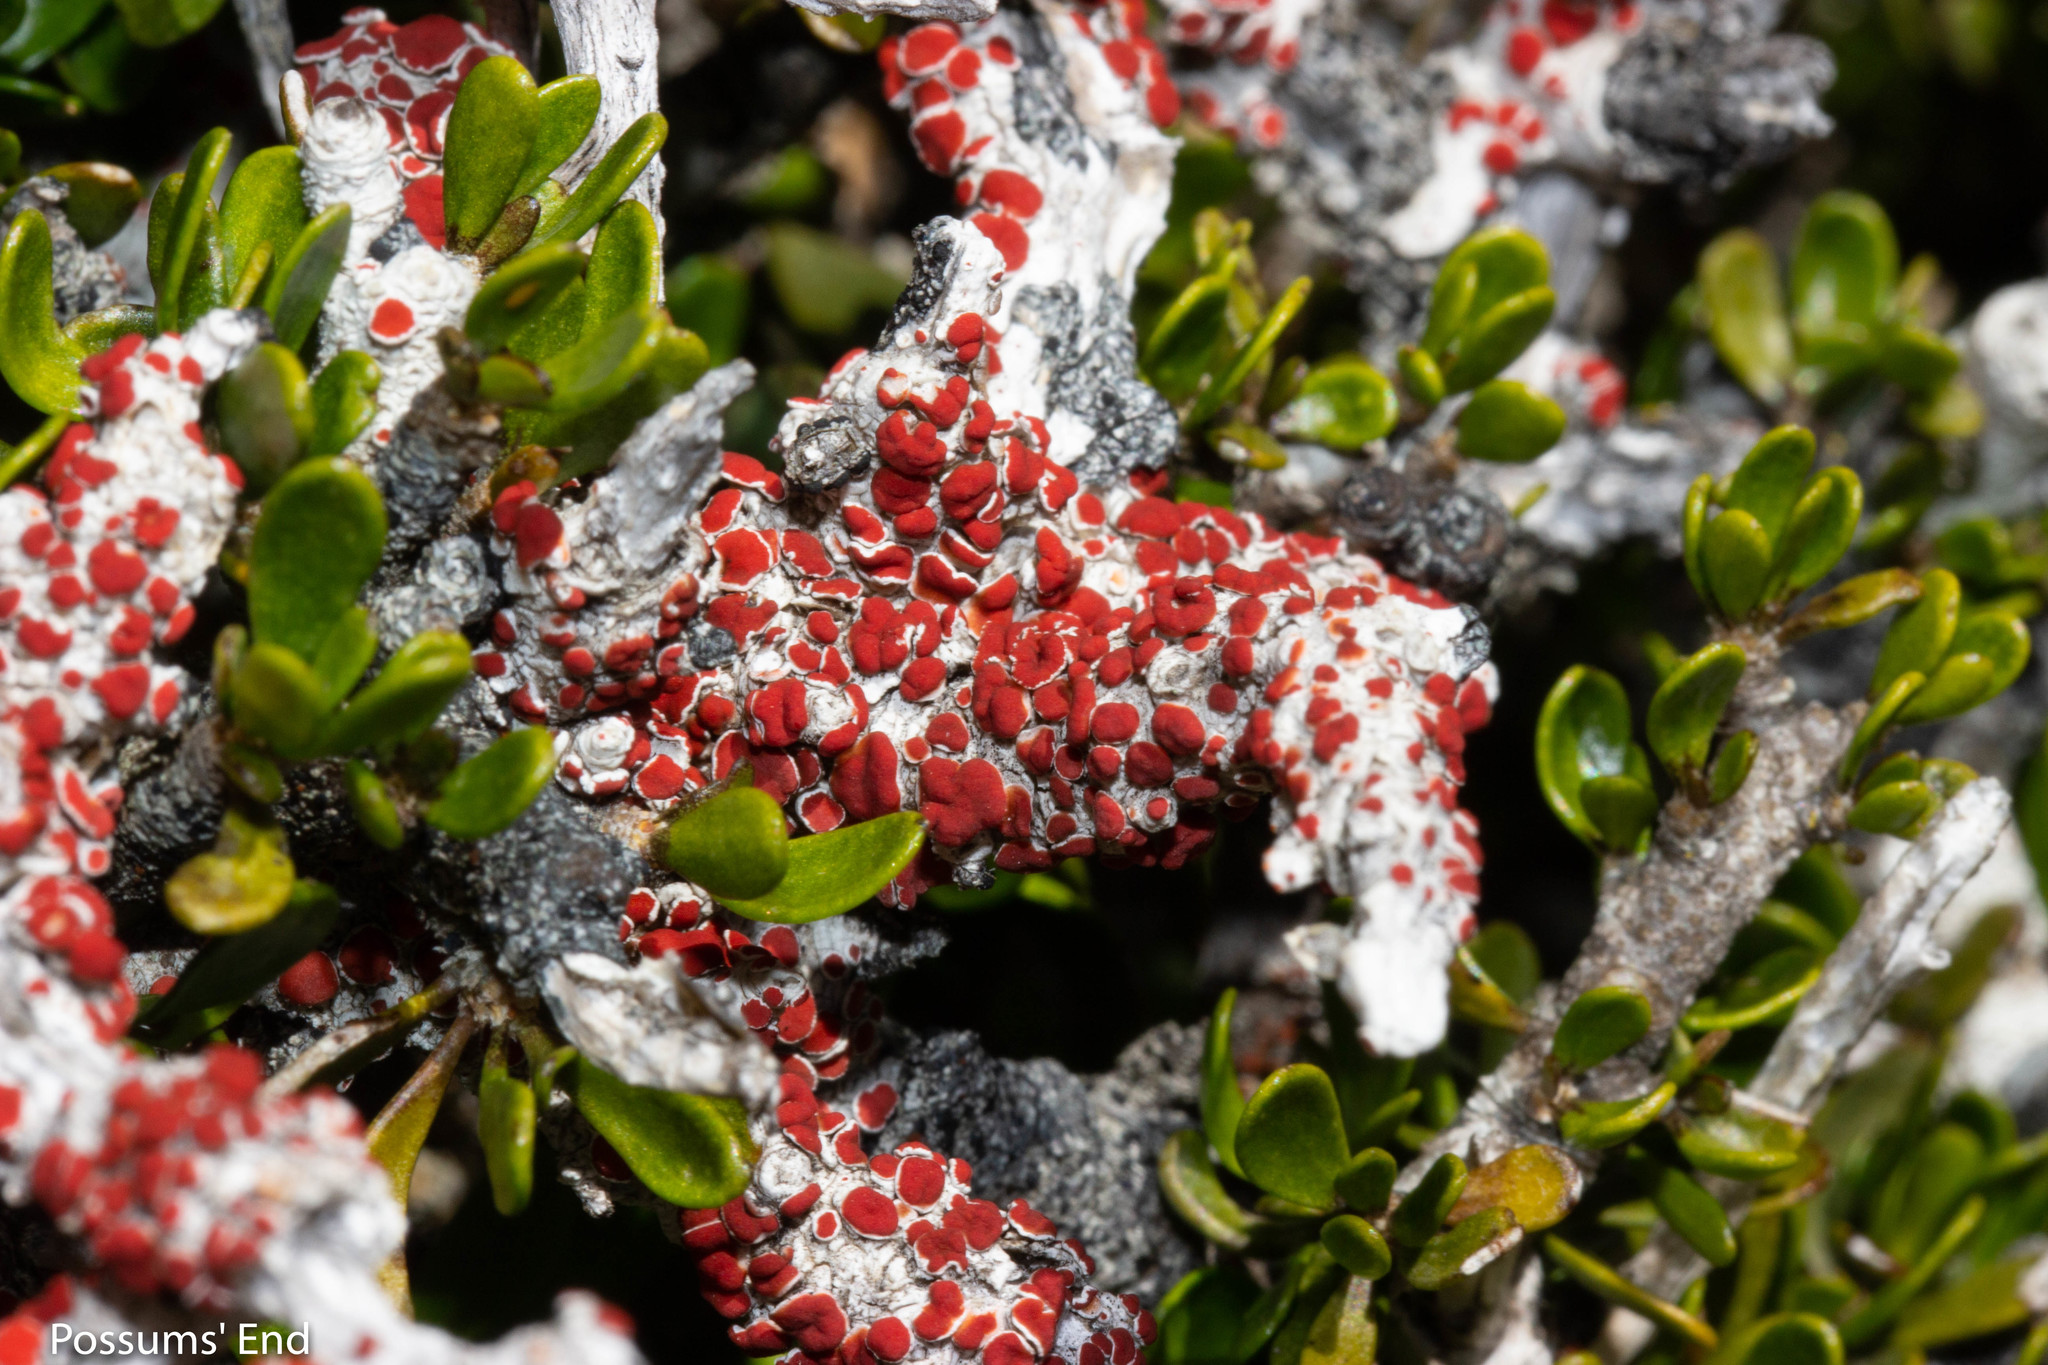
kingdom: Fungi
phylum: Ascomycota
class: Lecanoromycetes
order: Lecanorales
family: Haematommataceae
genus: Haematomma
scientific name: Haematomma
